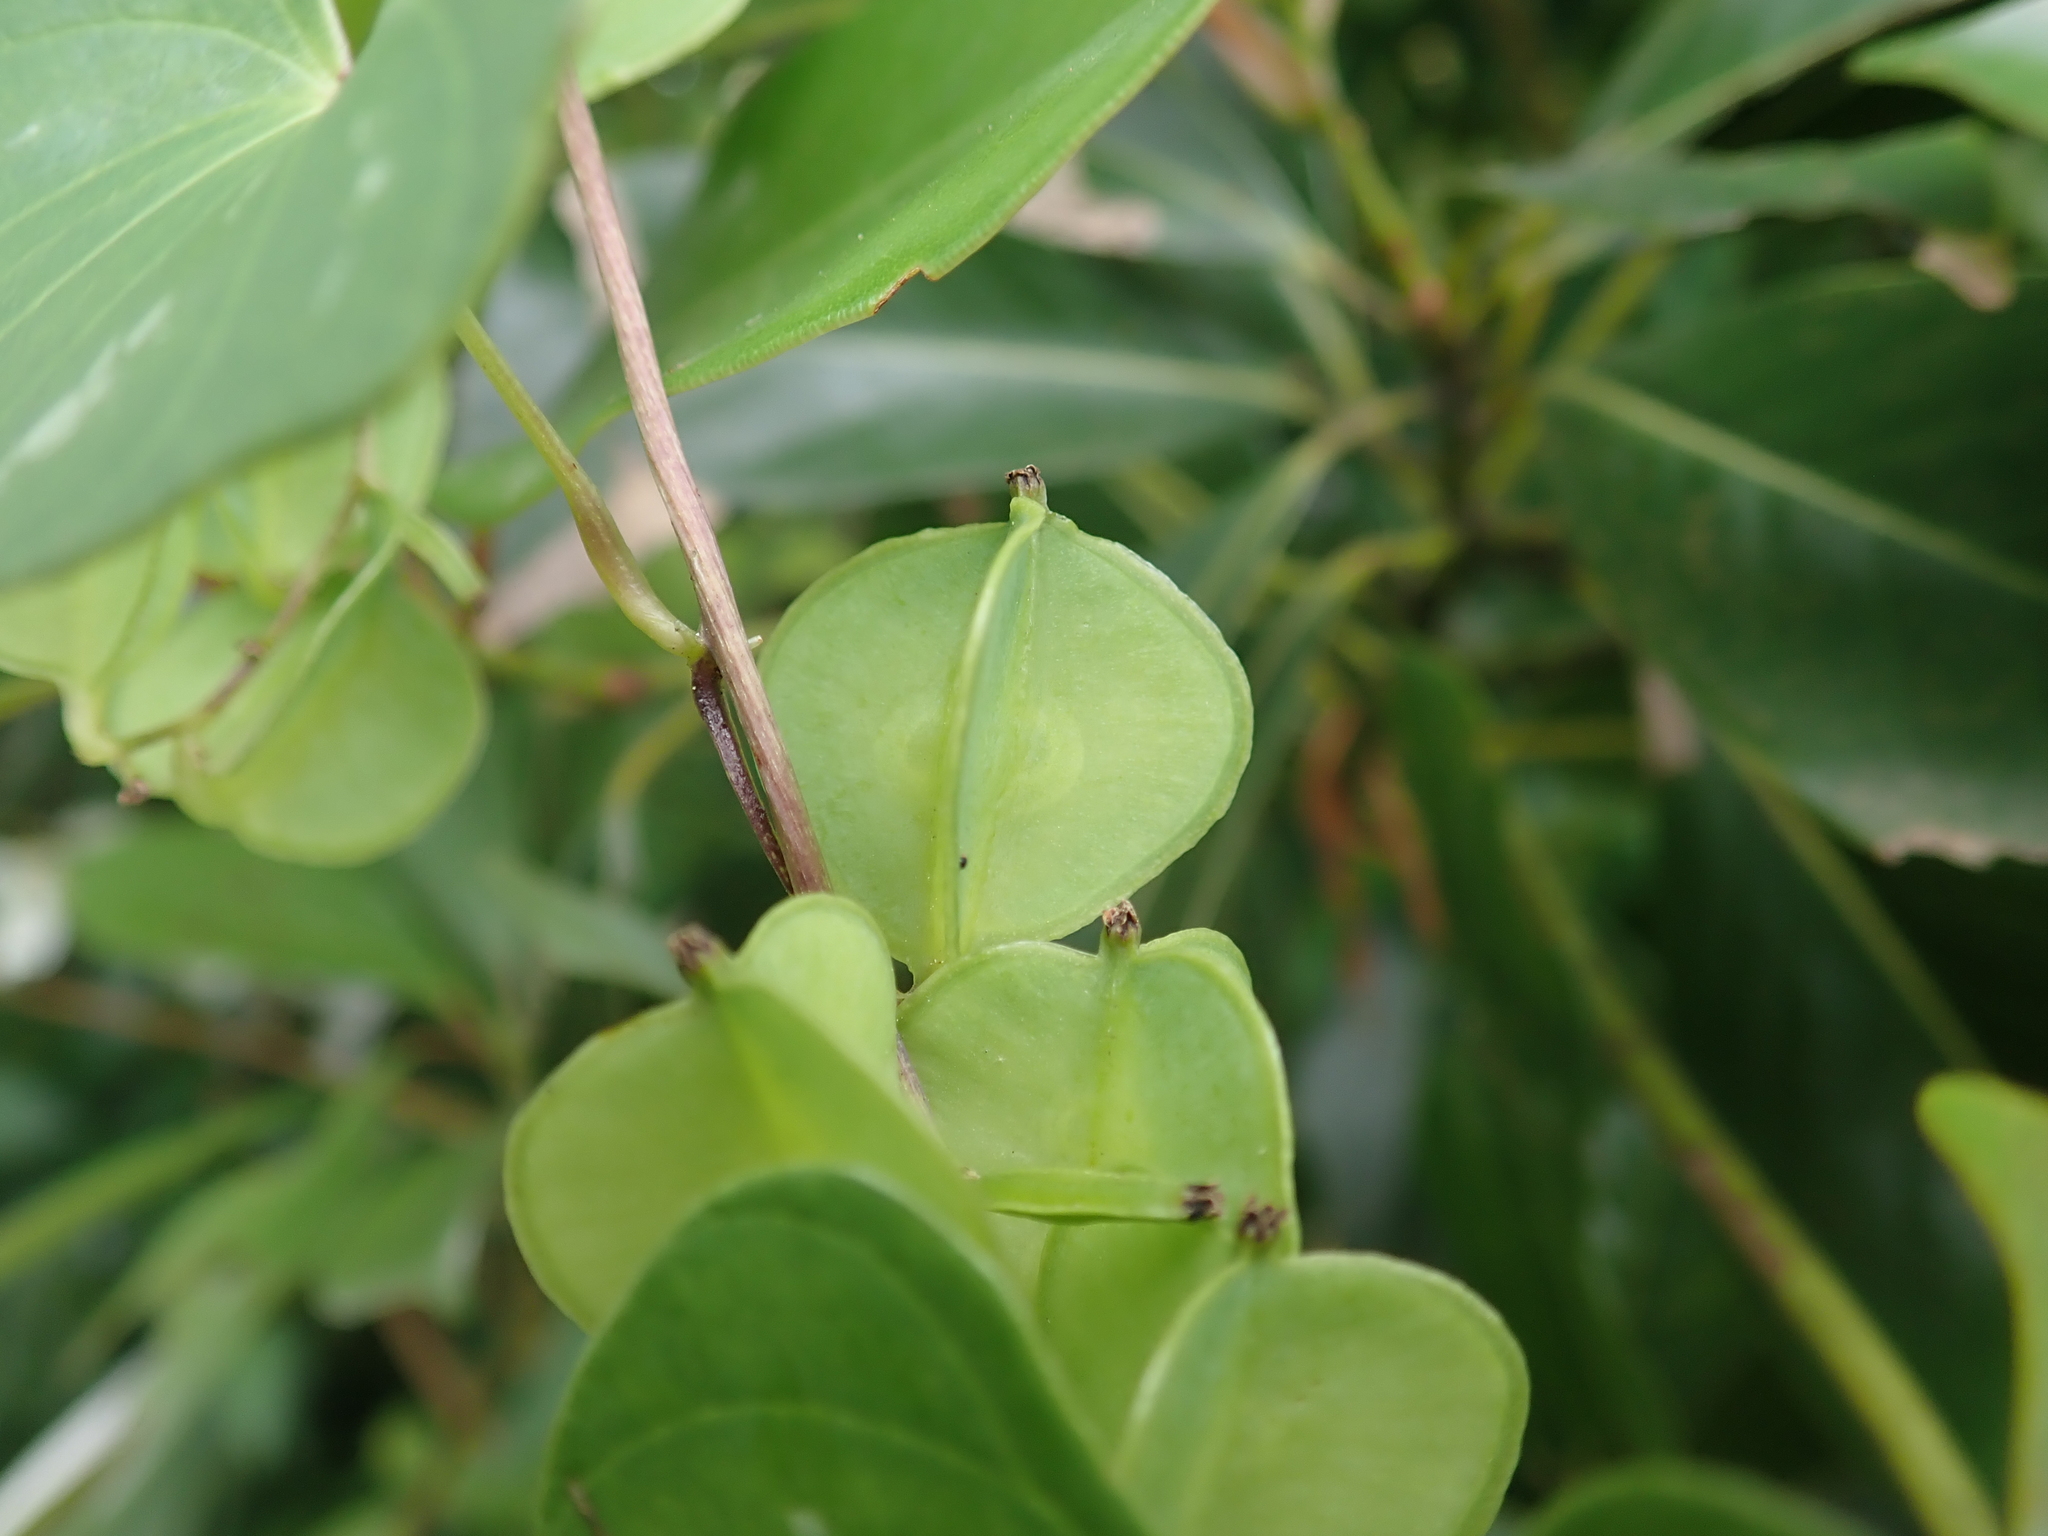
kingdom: Plantae
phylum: Tracheophyta
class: Liliopsida
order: Dioscoreales
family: Dioscoreaceae
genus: Dioscorea
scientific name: Dioscorea collettii
